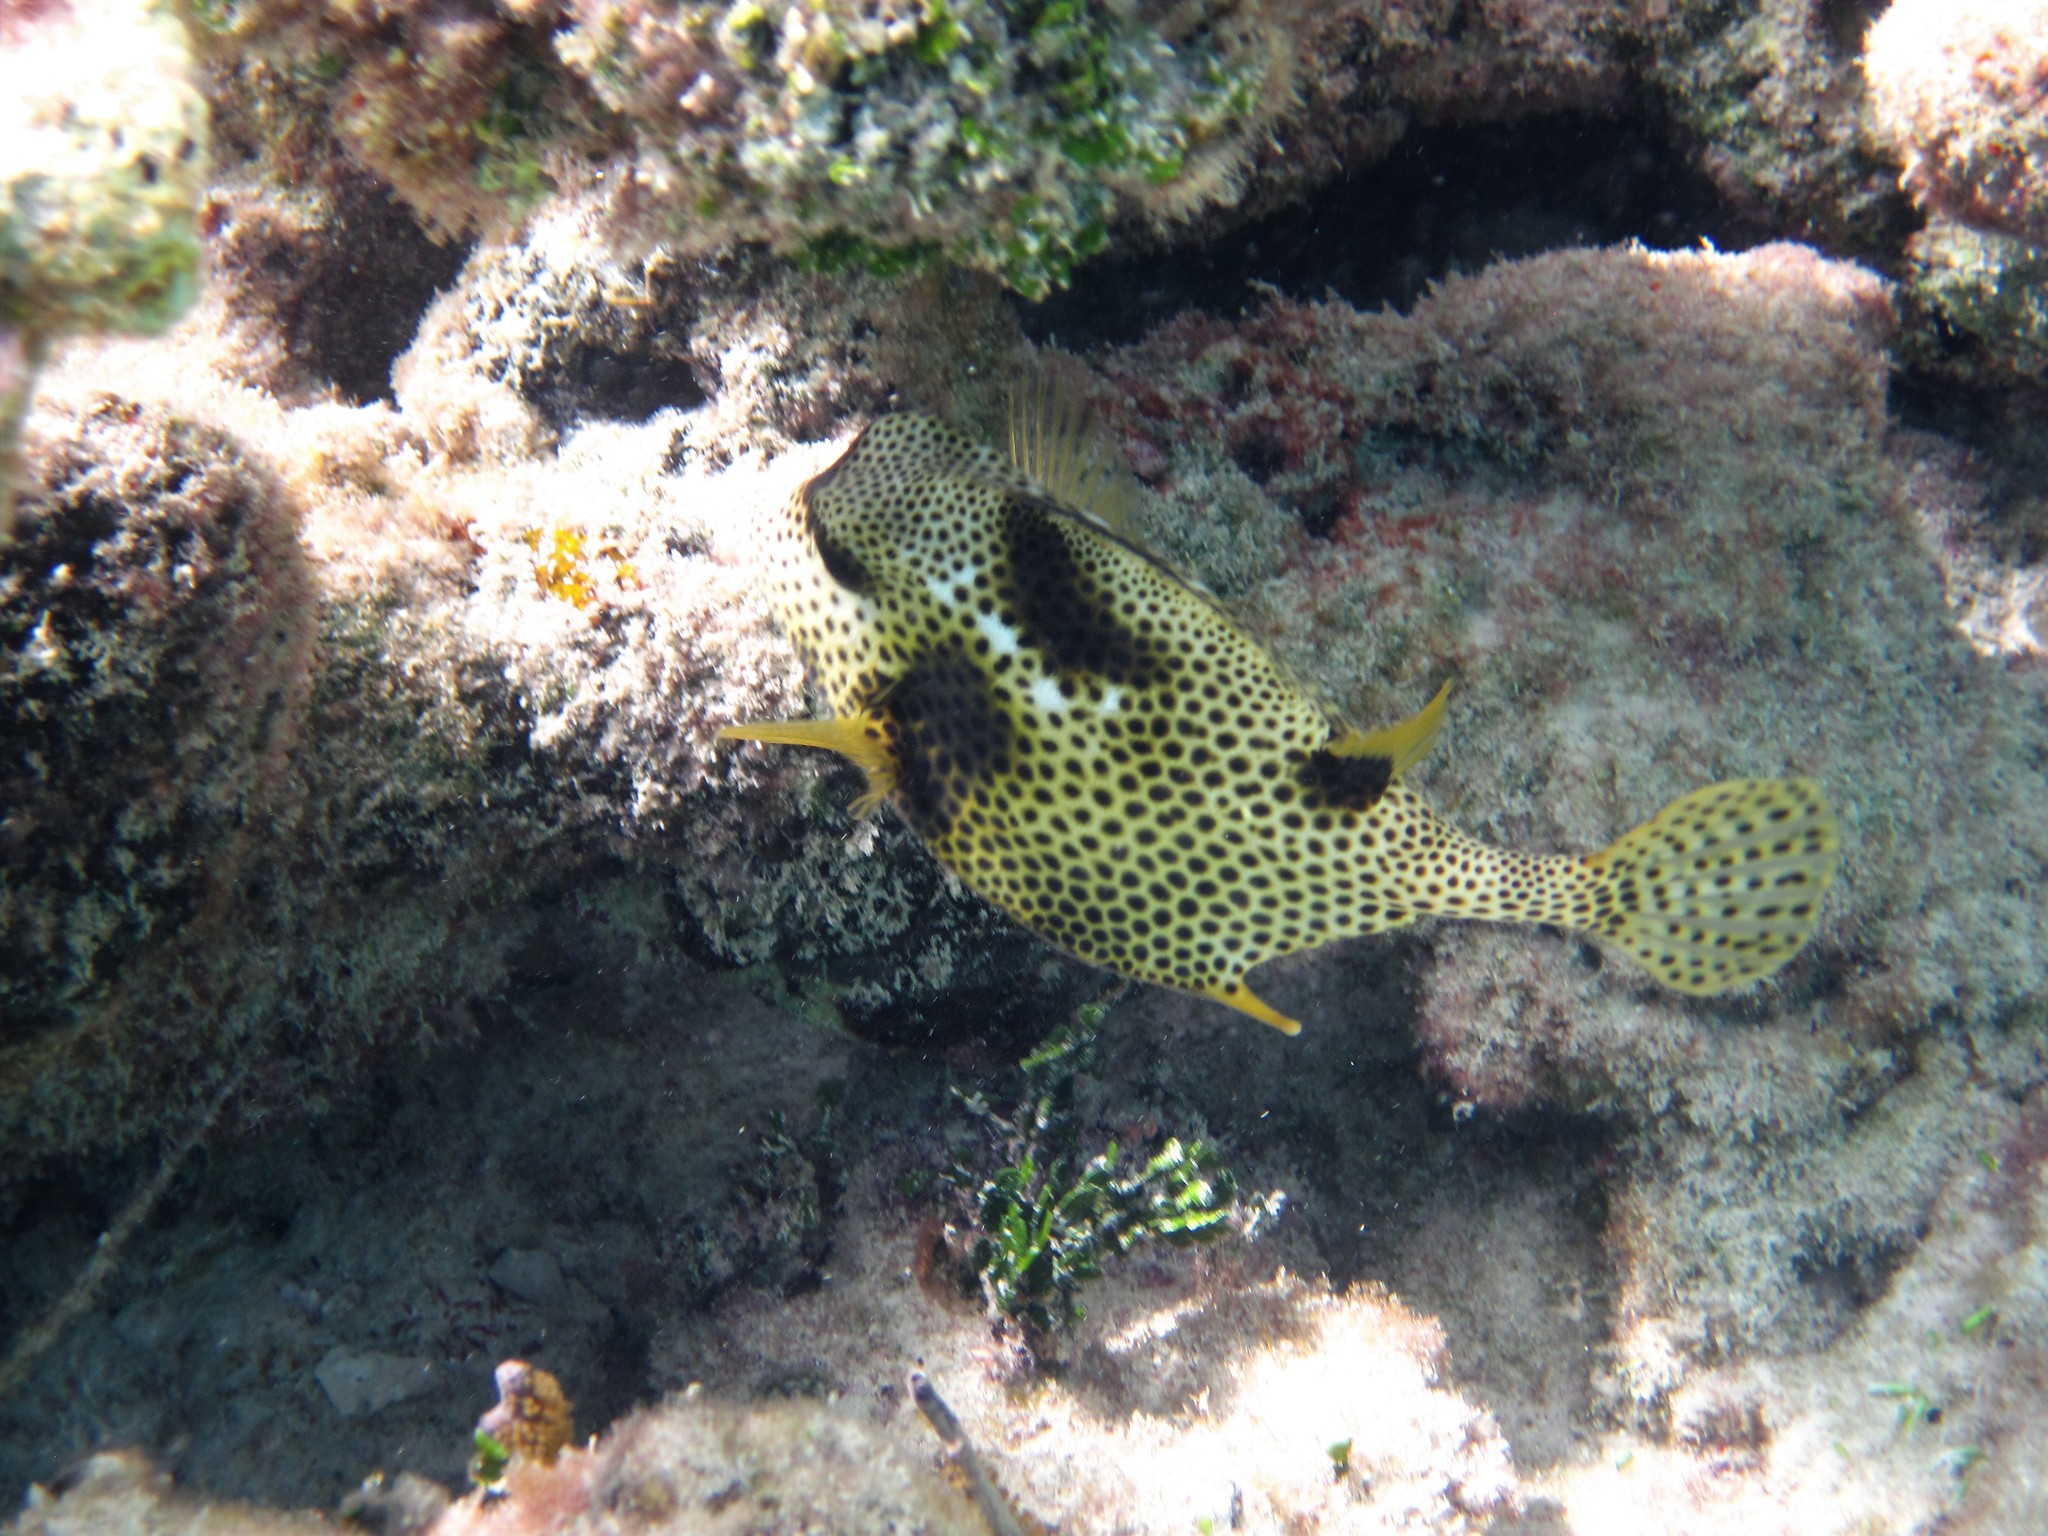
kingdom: Animalia
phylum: Chordata
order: Tetraodontiformes
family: Ostraciidae
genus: Lactophrys
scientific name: Lactophrys bicaudalis
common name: Spotted trunkfish
